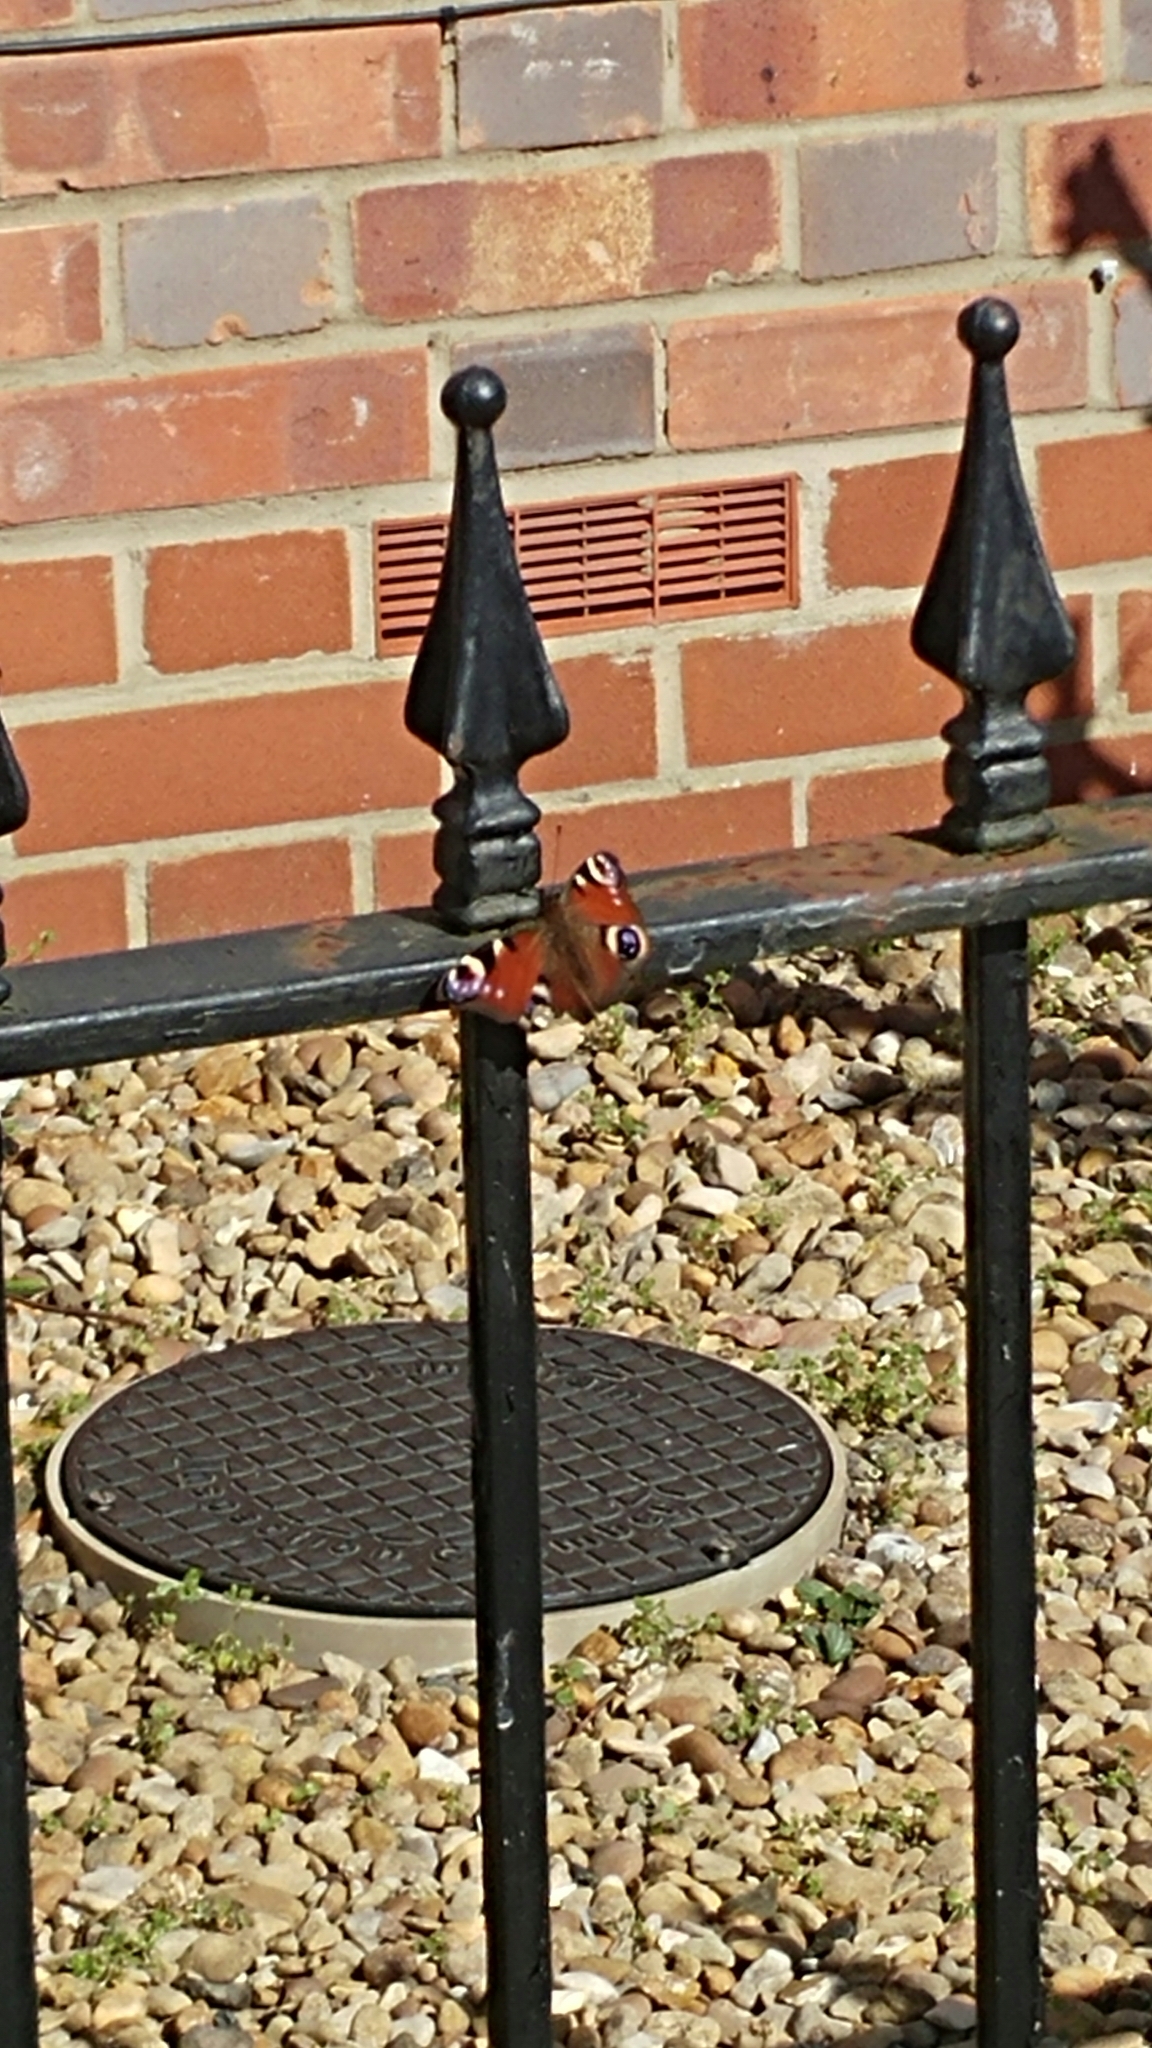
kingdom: Animalia
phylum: Arthropoda
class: Insecta
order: Lepidoptera
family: Nymphalidae
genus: Aglais
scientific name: Aglais io
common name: Peacock
